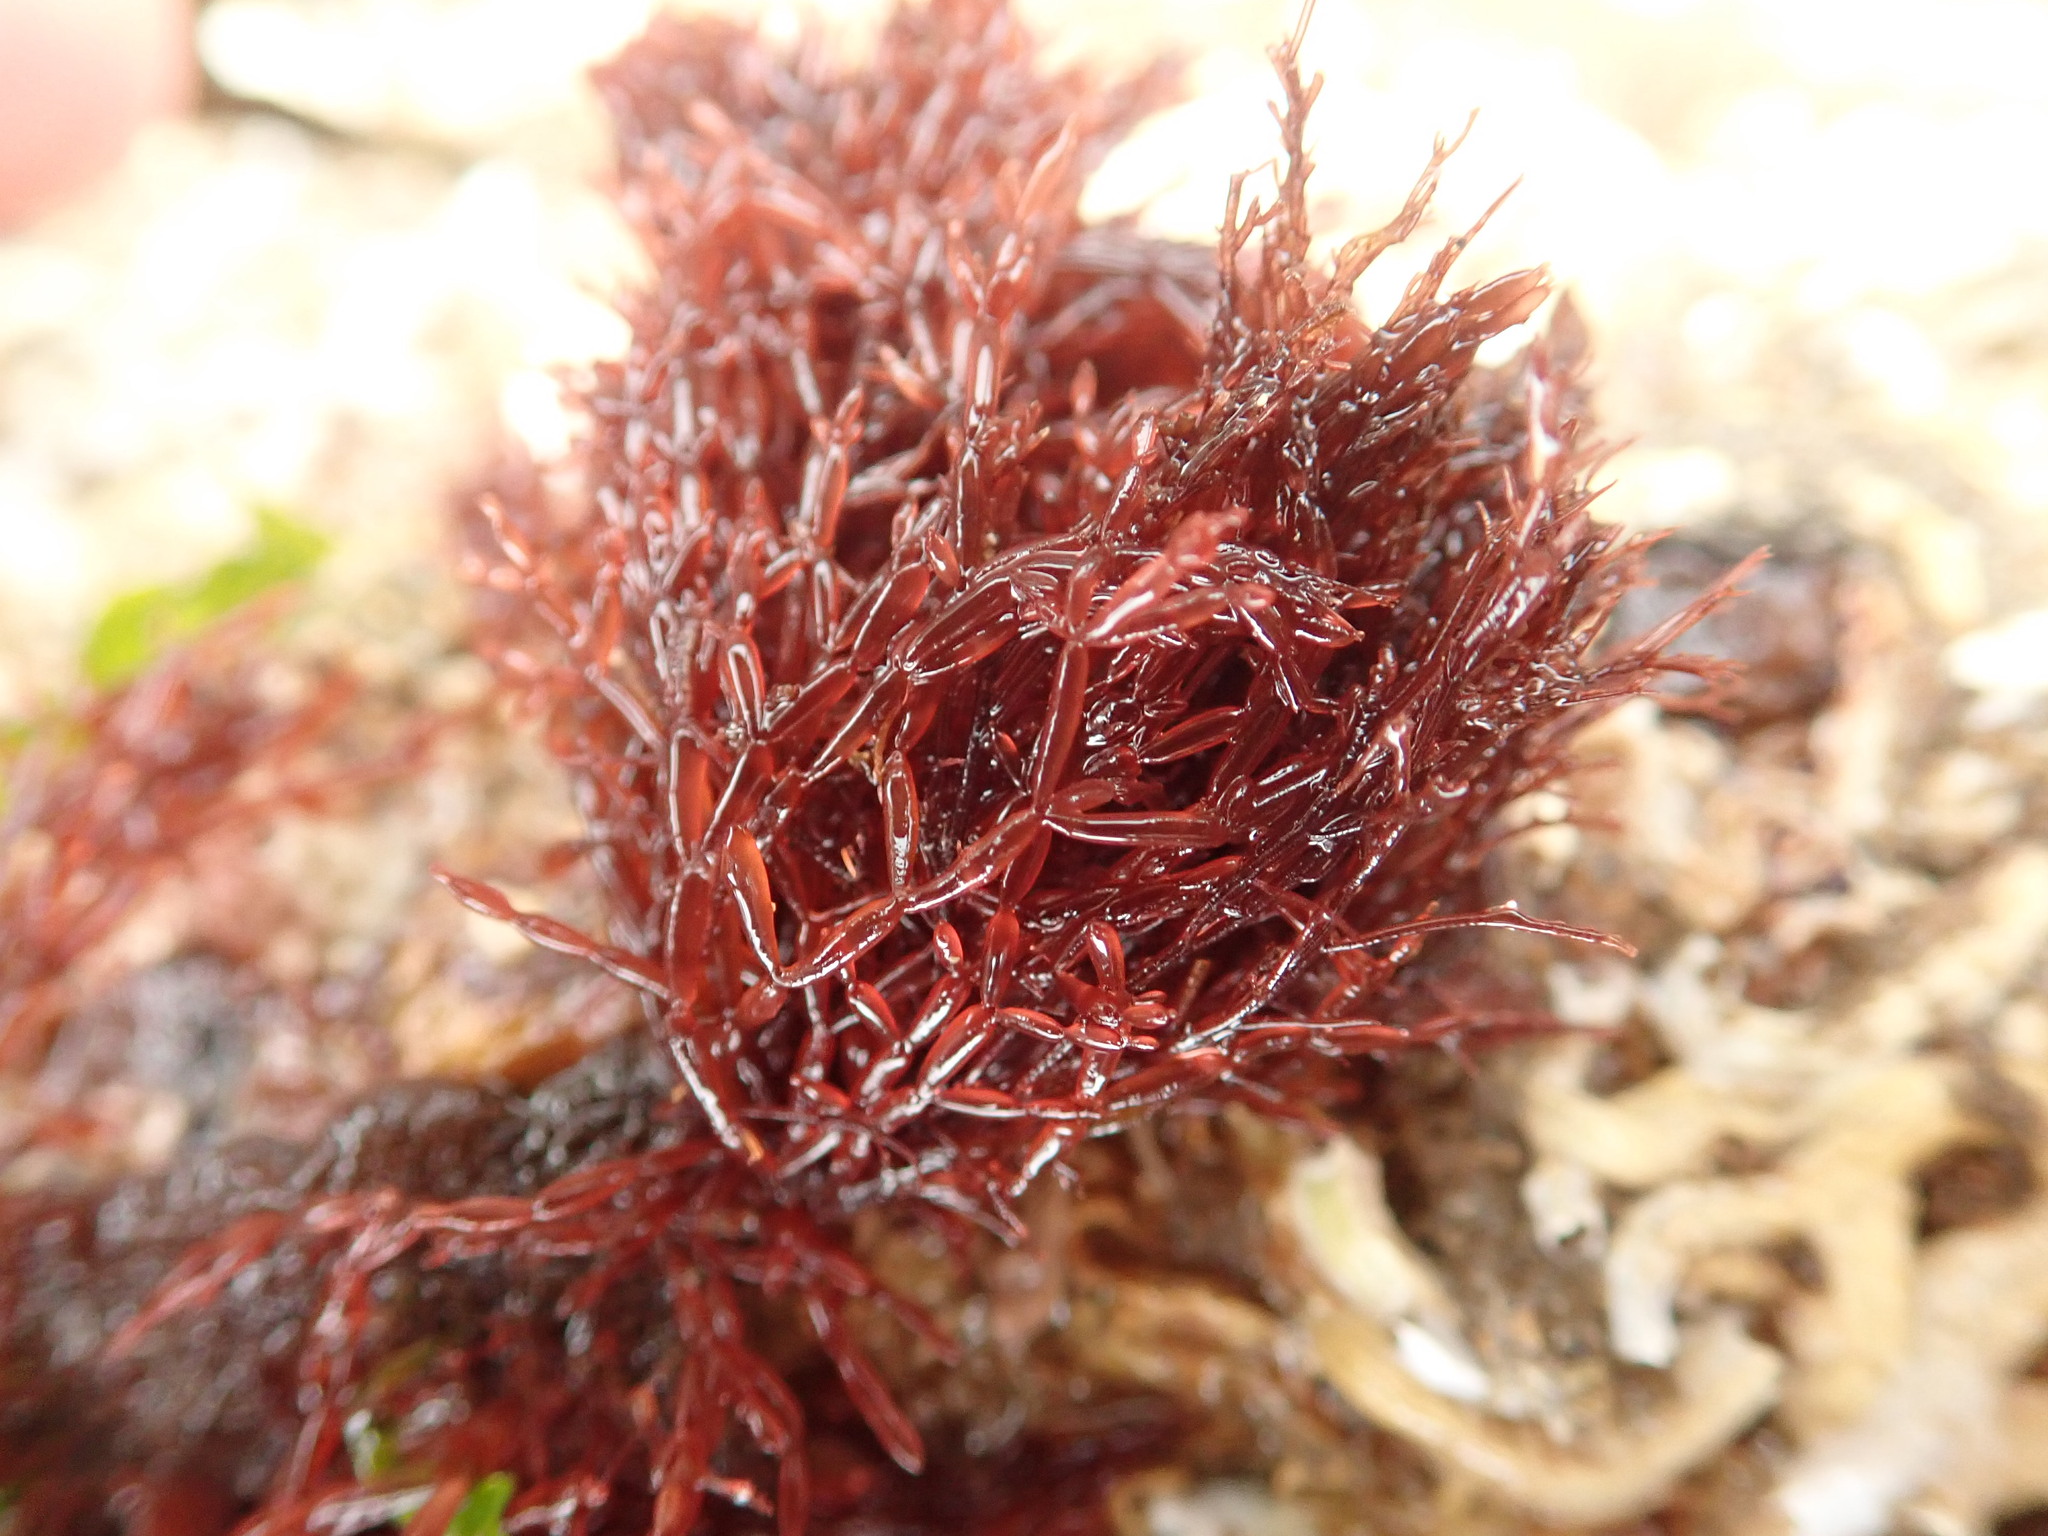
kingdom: Plantae
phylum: Rhodophyta
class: Florideophyceae
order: Rhodymeniales
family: Lomentariaceae
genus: Lomentaria
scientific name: Lomentaria articulata
